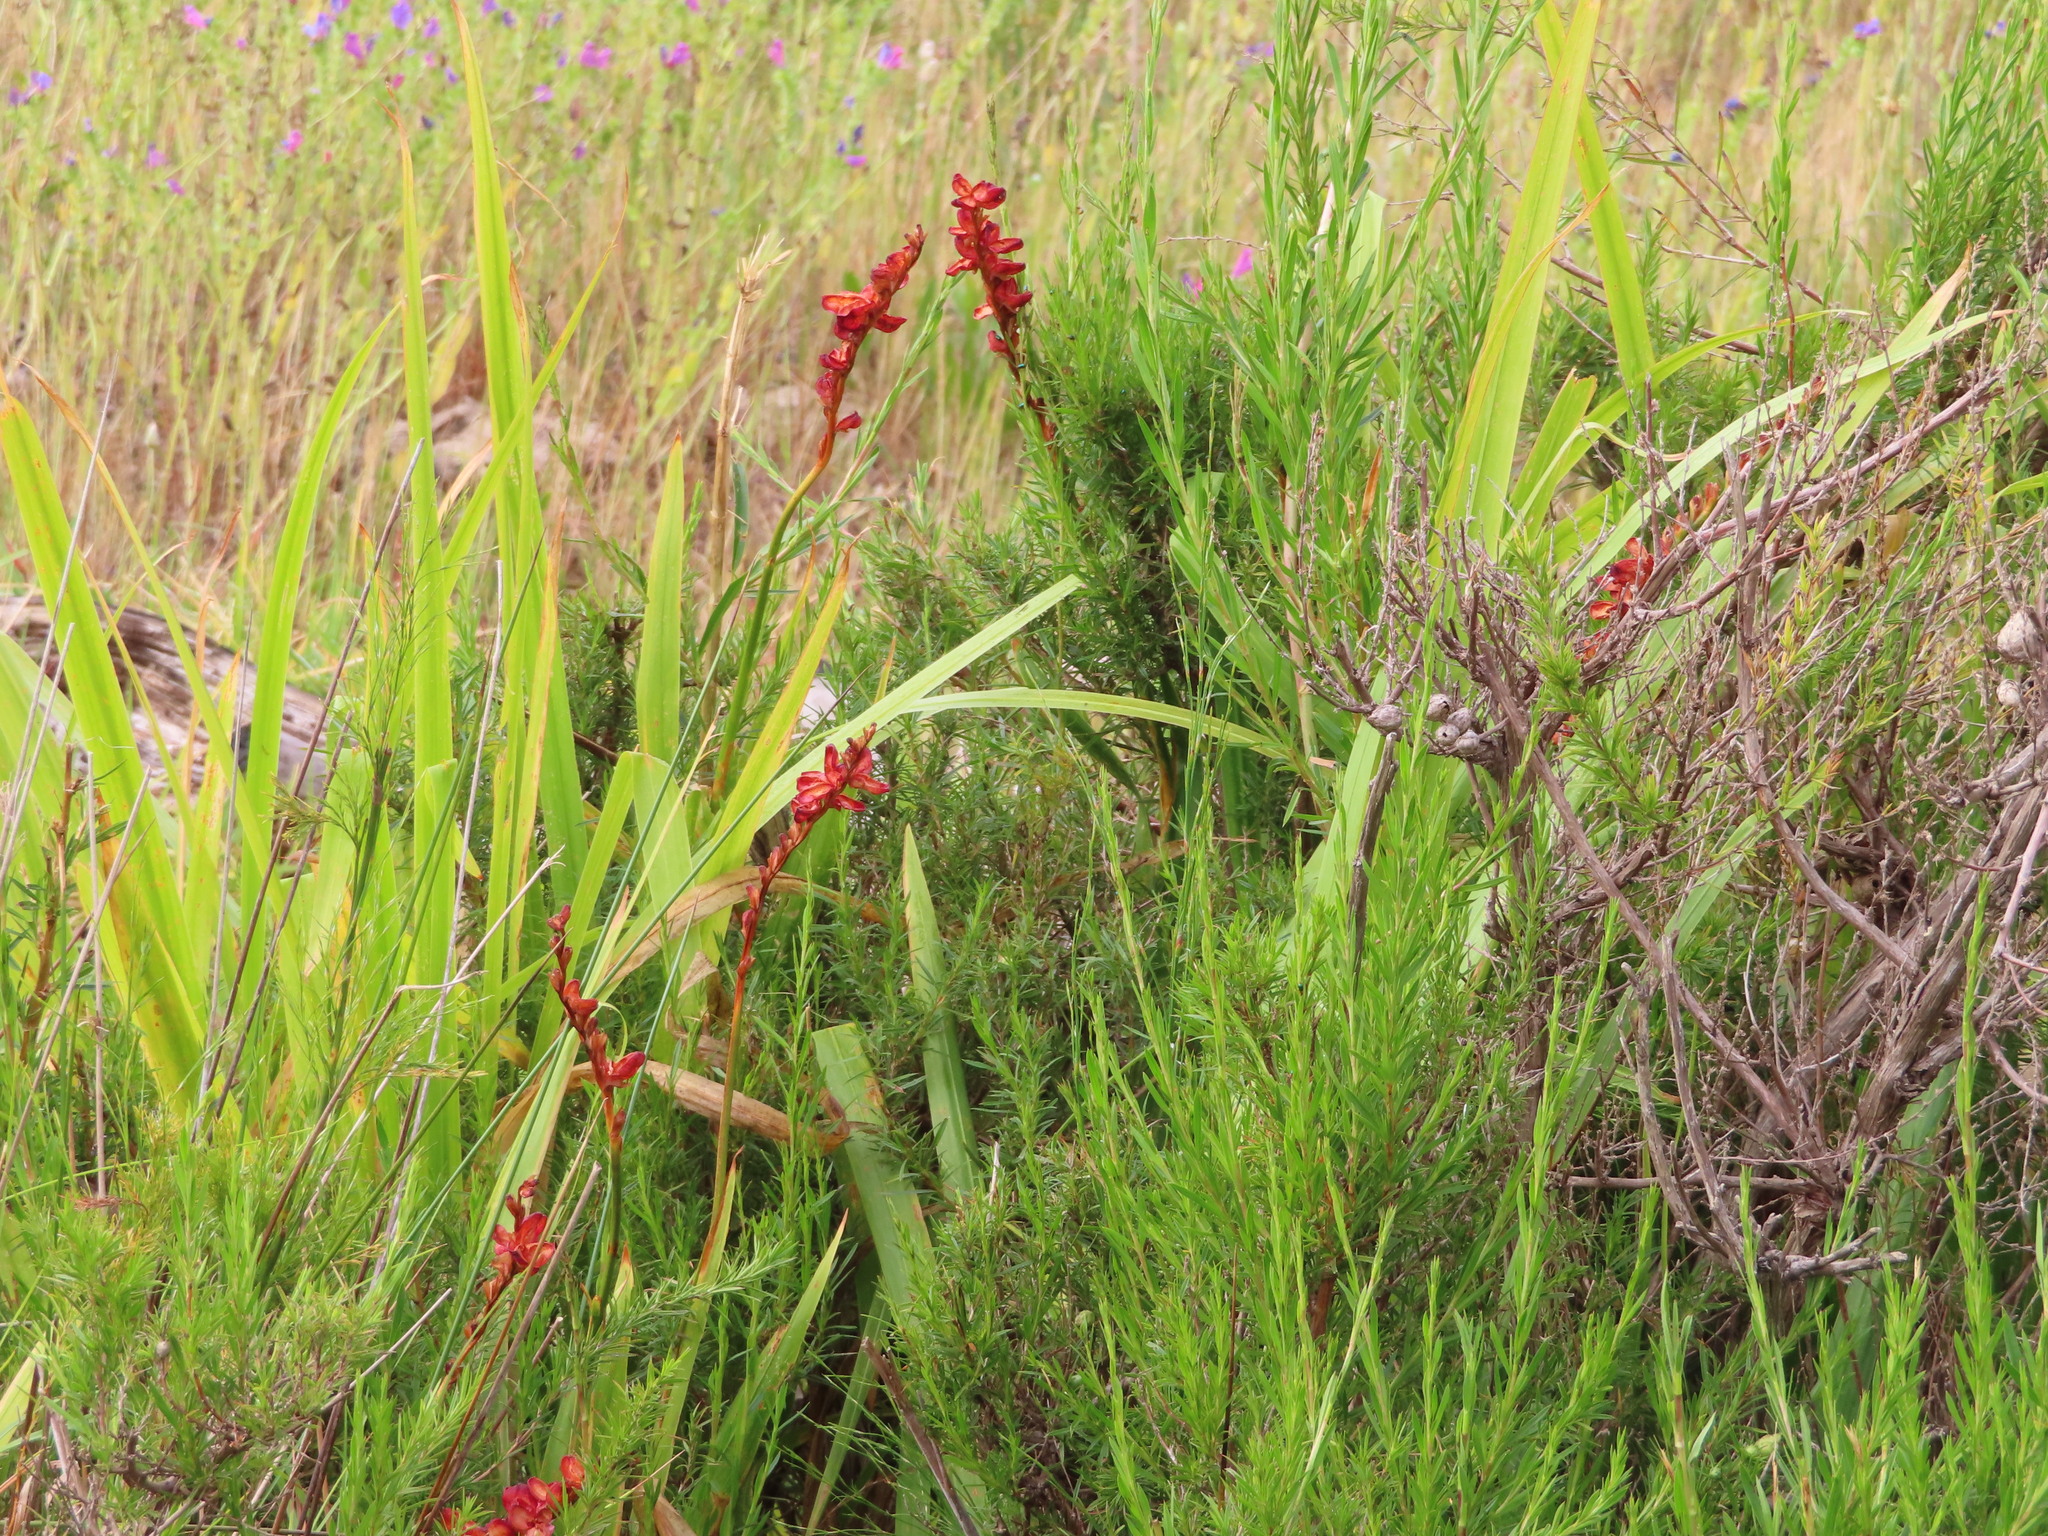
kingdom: Plantae
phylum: Tracheophyta
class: Liliopsida
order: Asparagales
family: Iridaceae
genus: Chasmanthe
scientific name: Chasmanthe aethiopica
